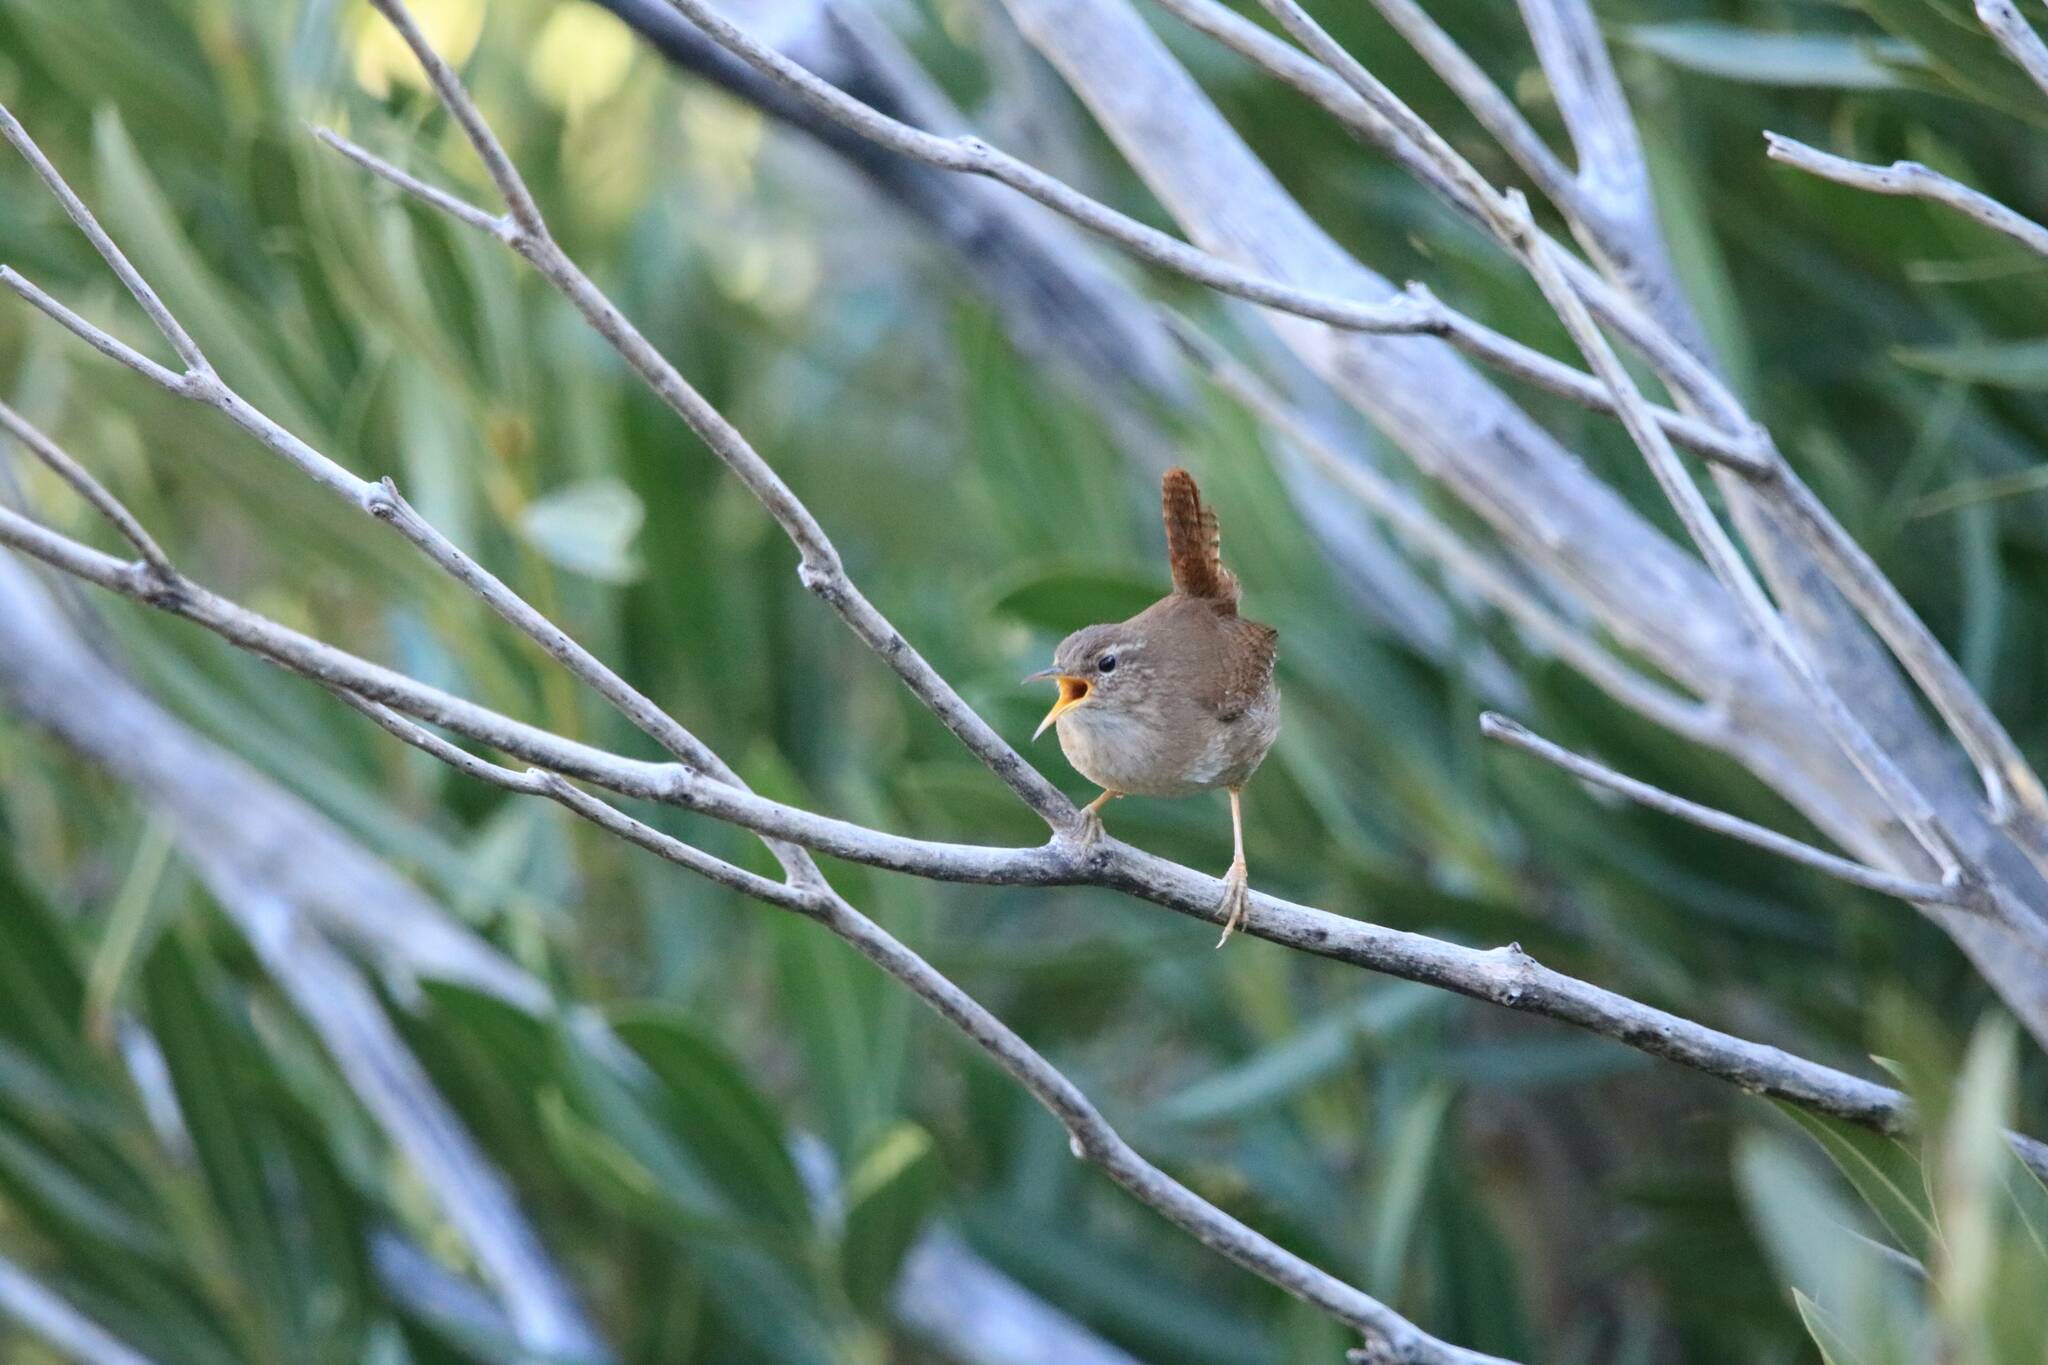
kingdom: Animalia
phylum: Chordata
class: Aves
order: Passeriformes
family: Troglodytidae
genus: Troglodytes
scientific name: Troglodytes troglodytes
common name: Eurasian wren
